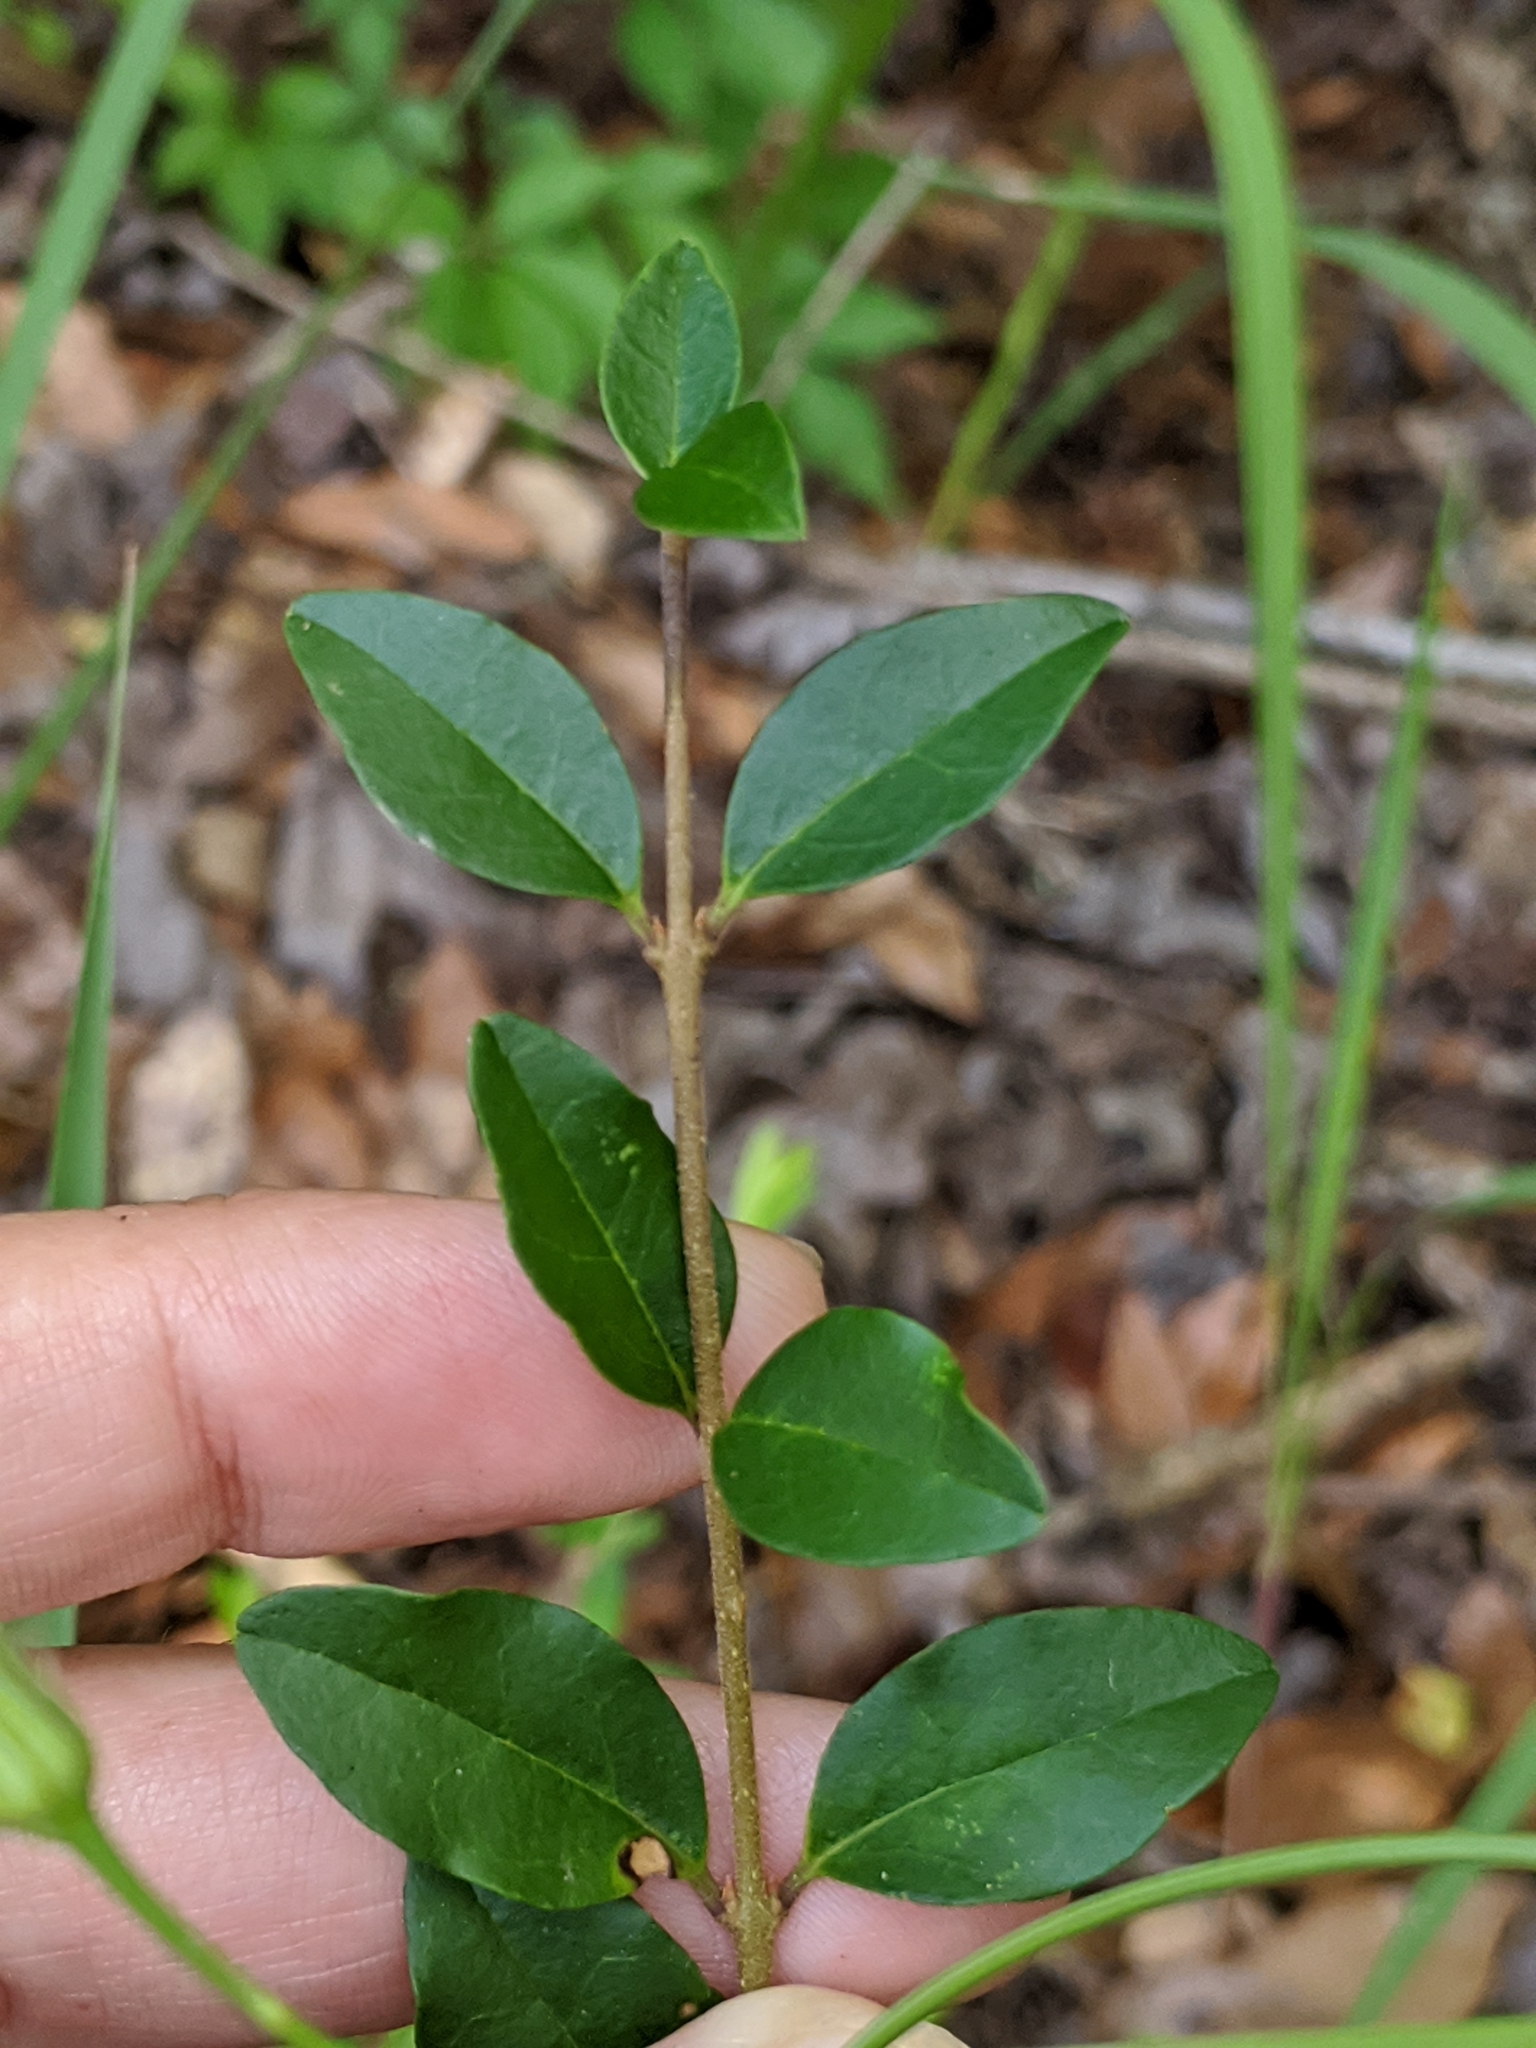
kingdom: Plantae
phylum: Tracheophyta
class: Magnoliopsida
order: Lamiales
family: Oleaceae
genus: Ligustrum
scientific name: Ligustrum sinense
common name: Chinese privet
